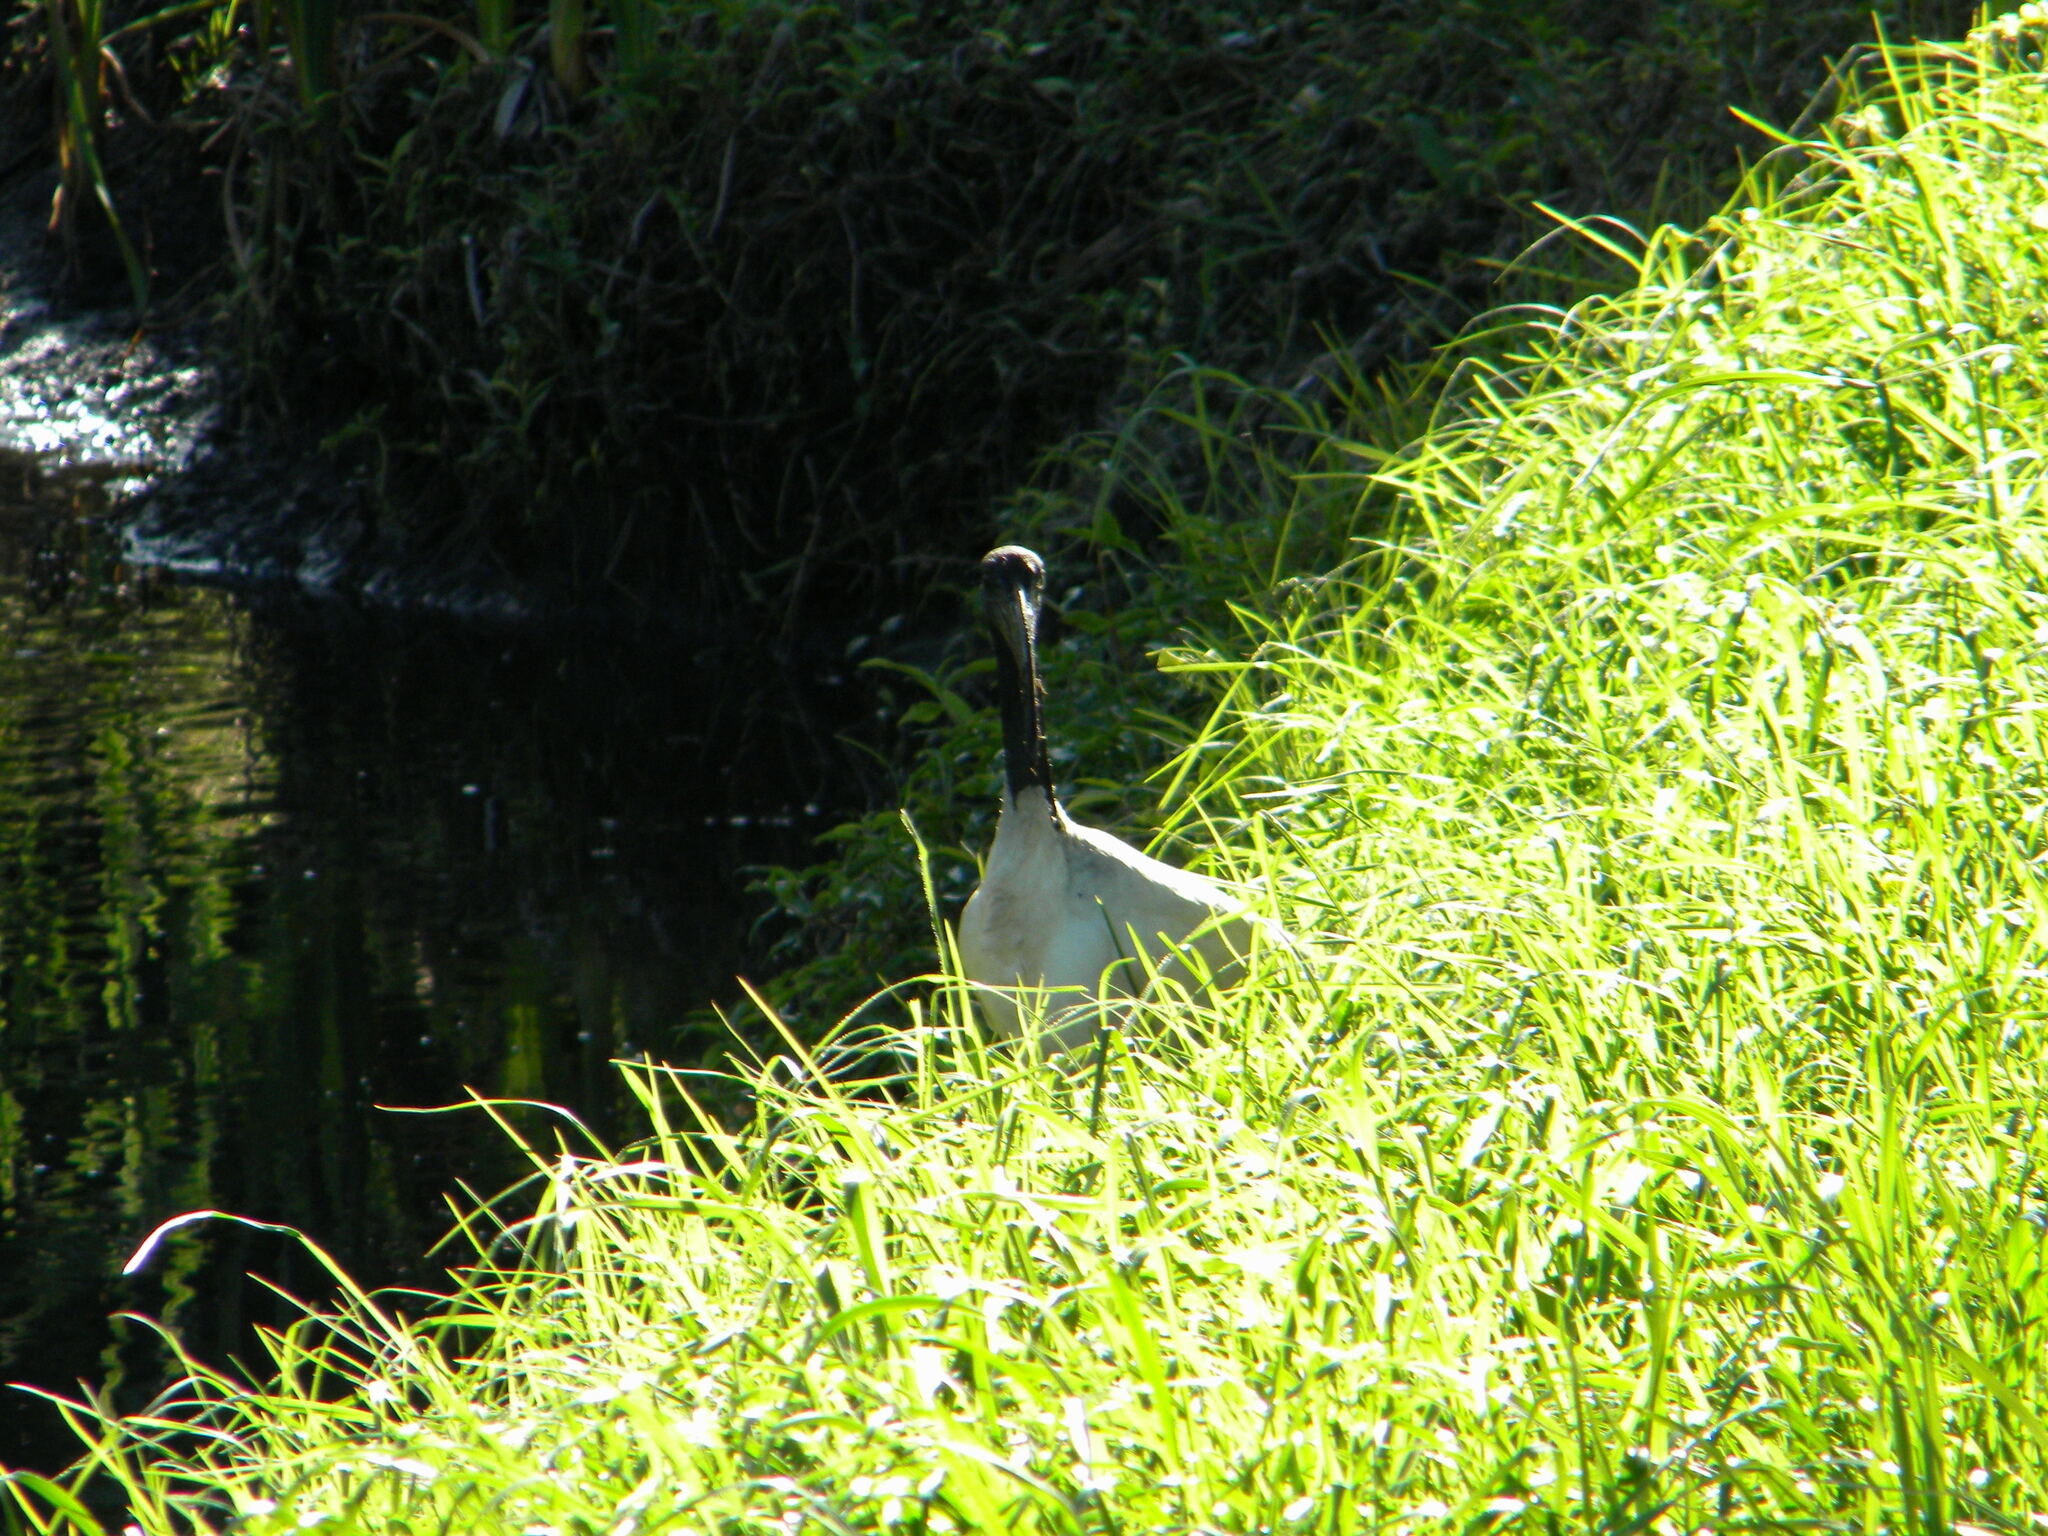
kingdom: Animalia
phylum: Chordata
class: Aves
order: Pelecaniformes
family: Threskiornithidae
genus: Threskiornis
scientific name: Threskiornis aethiopicus
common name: Sacred ibis
